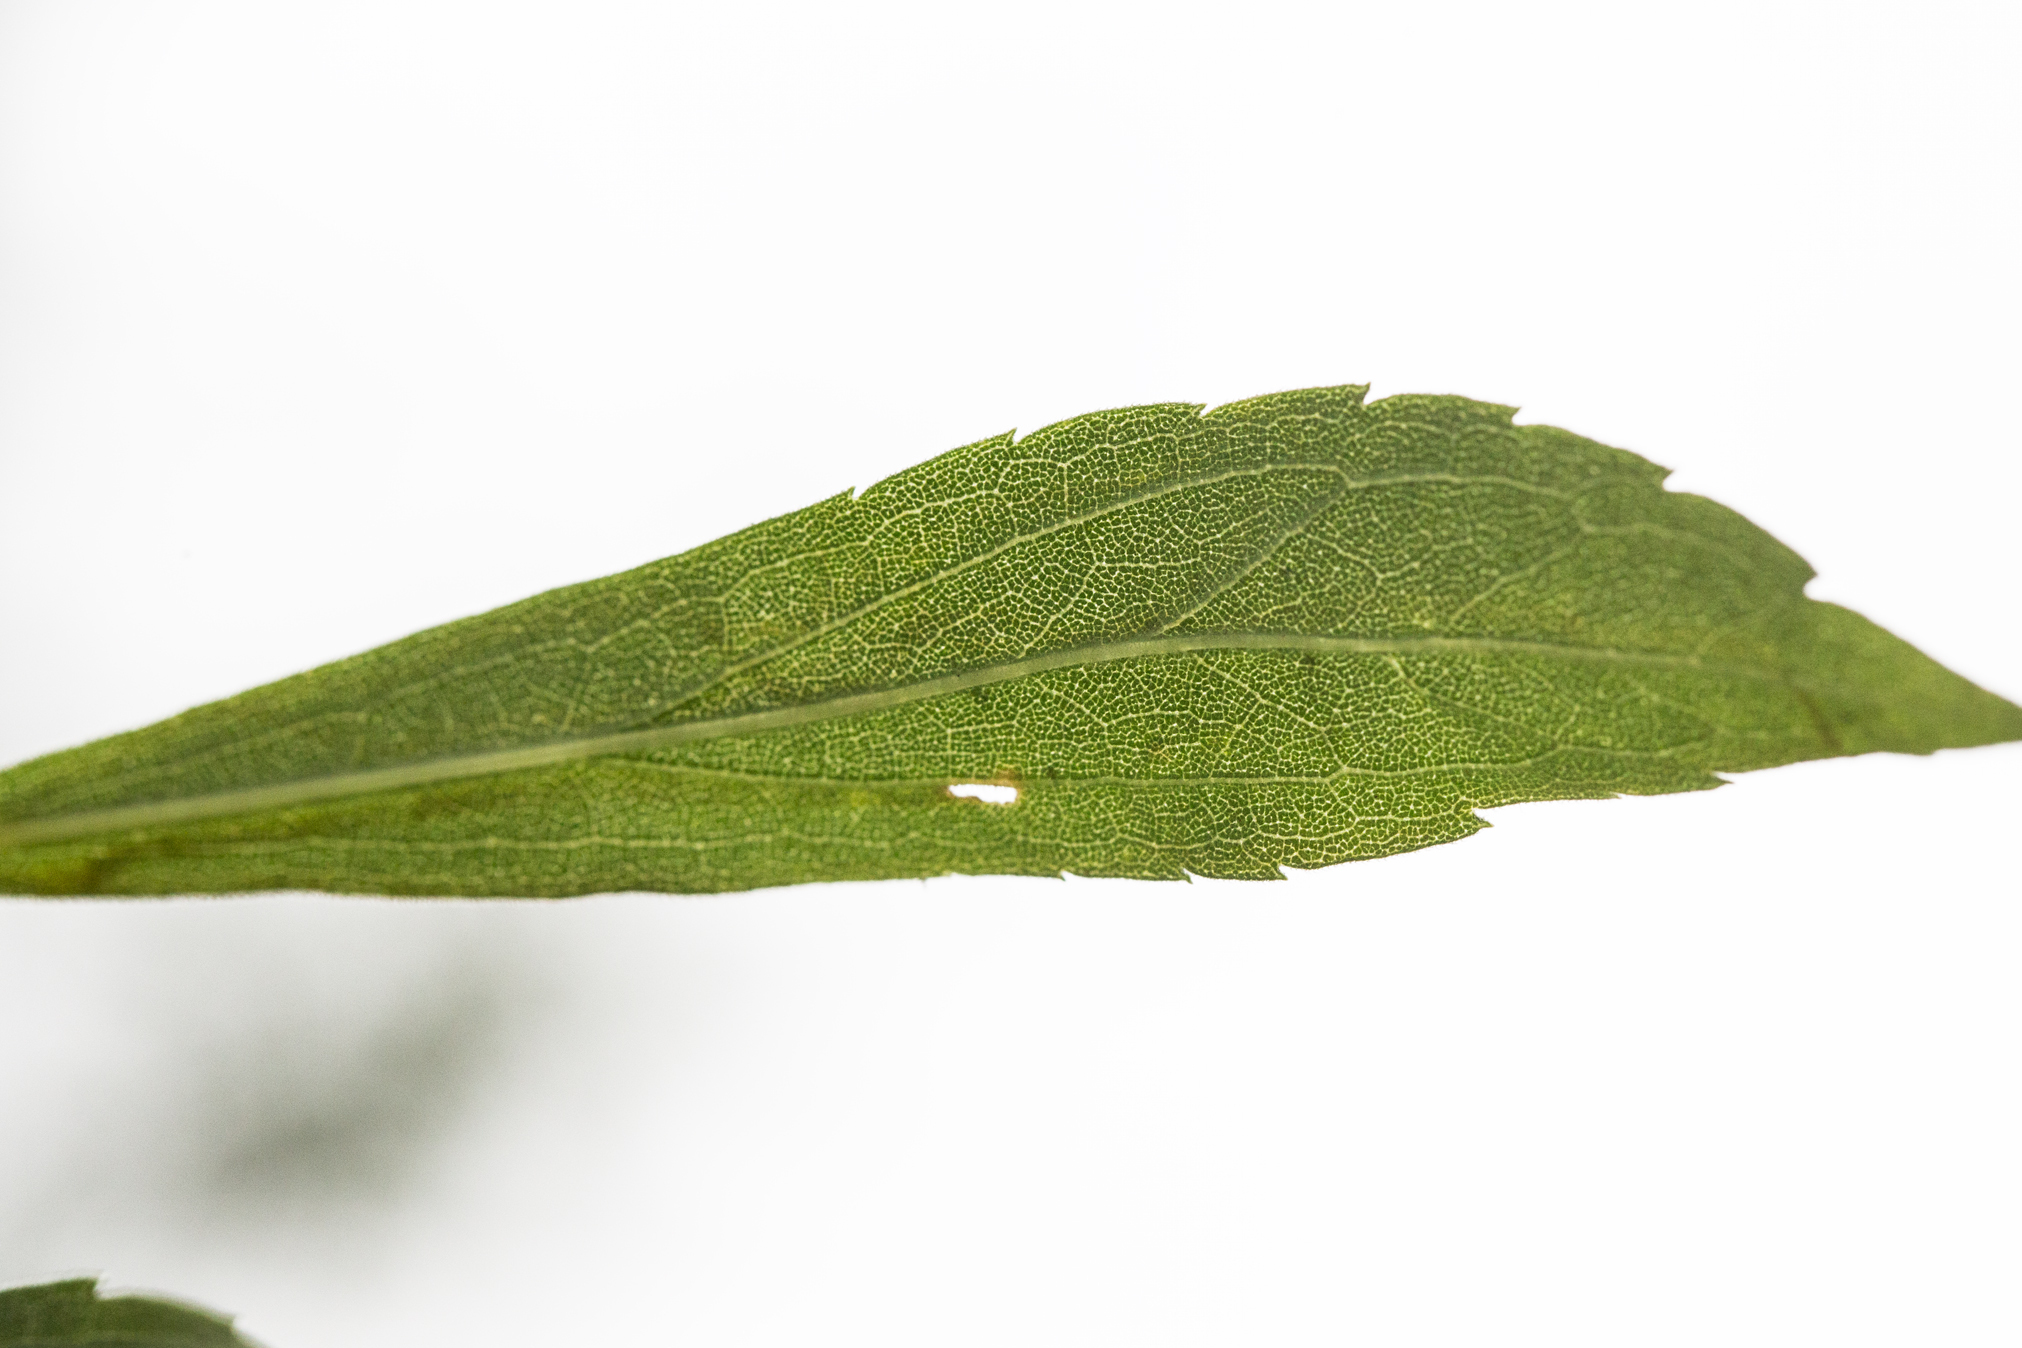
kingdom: Animalia
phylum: Arthropoda
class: Insecta
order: Diptera
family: Agromyzidae
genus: Ophiomyia
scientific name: Ophiomyia maura
